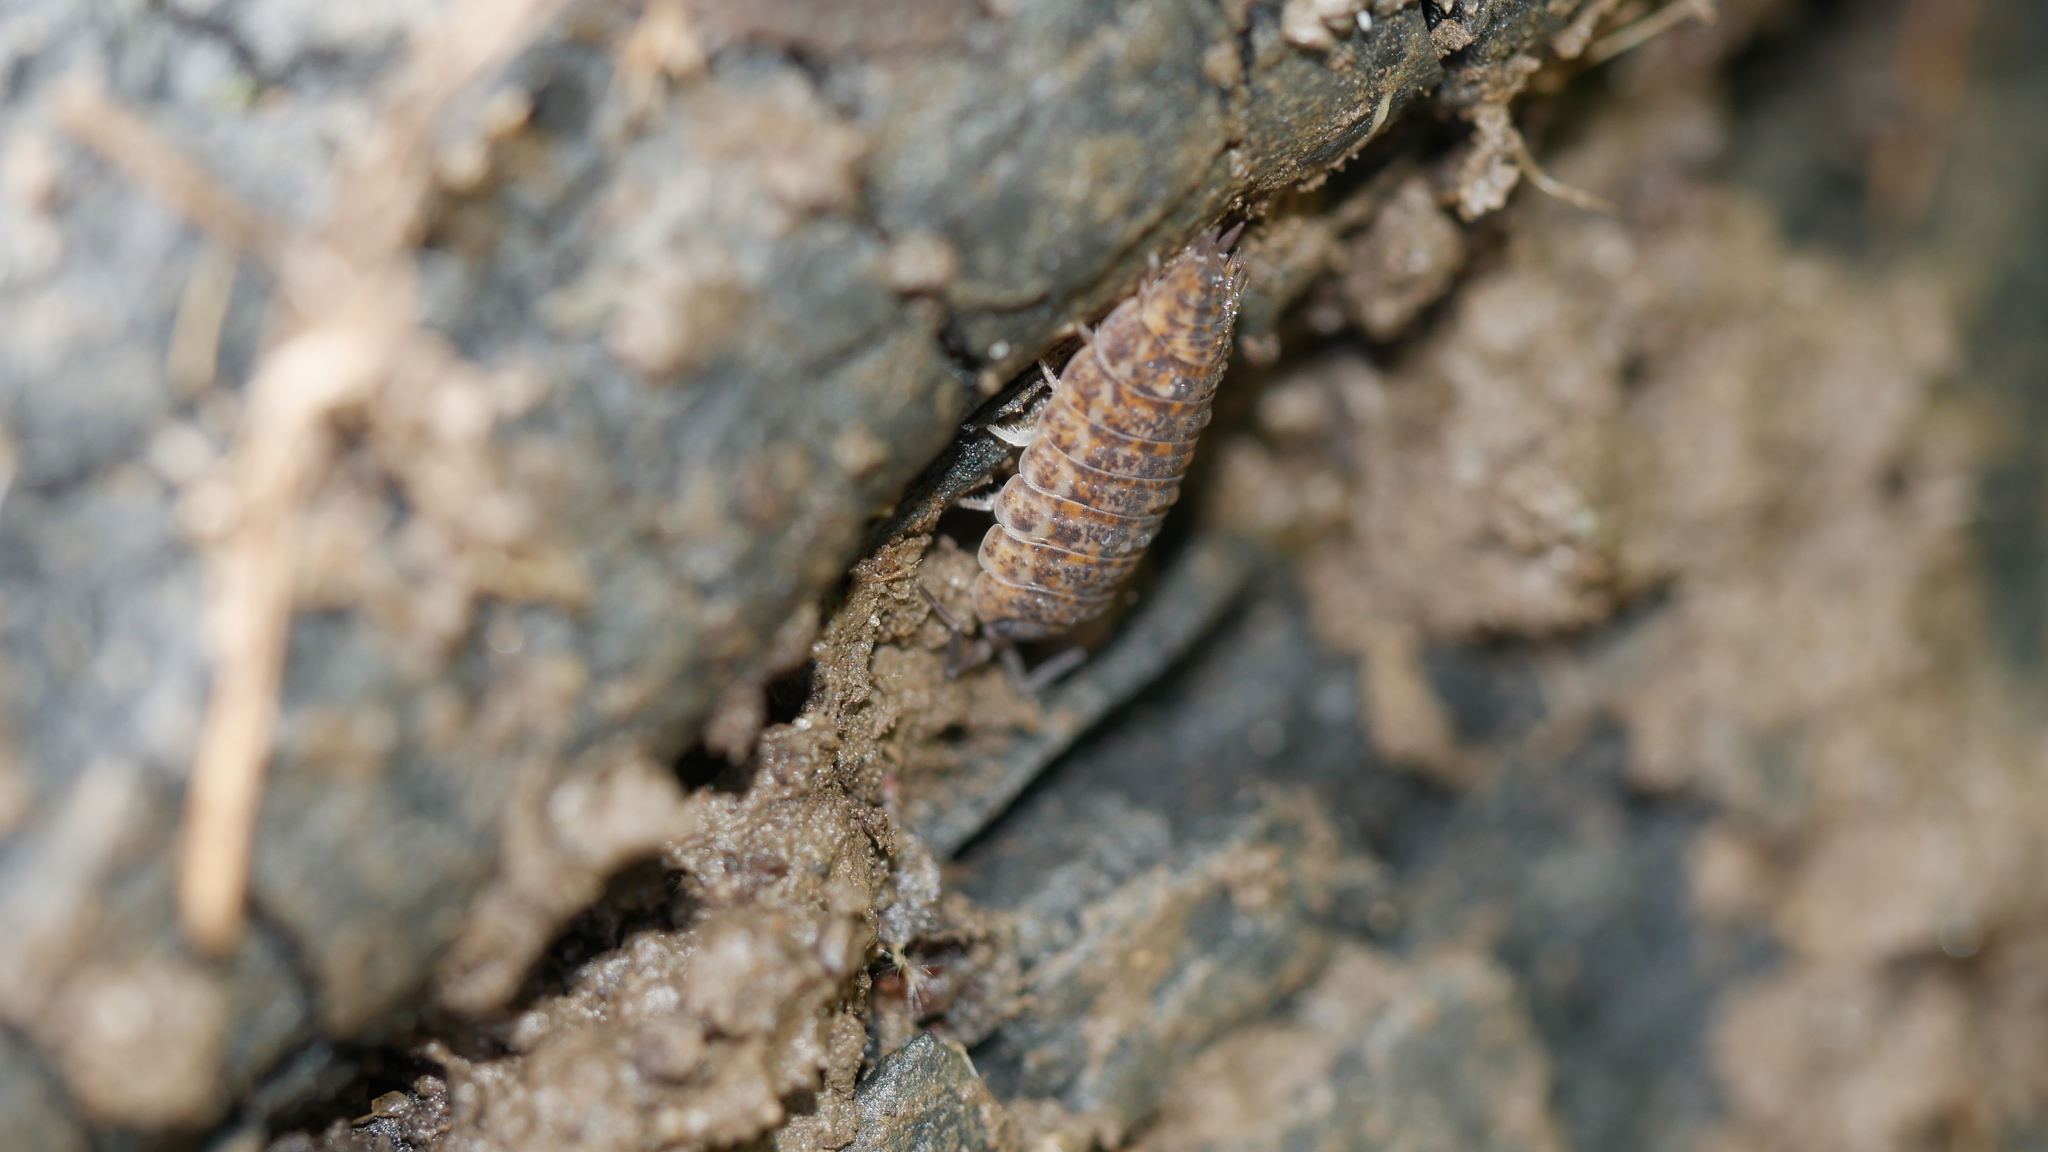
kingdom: Animalia
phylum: Arthropoda
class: Malacostraca
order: Isopoda
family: Trachelipodidae
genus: Trachelipus
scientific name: Trachelipus rathkii
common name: Isopod
